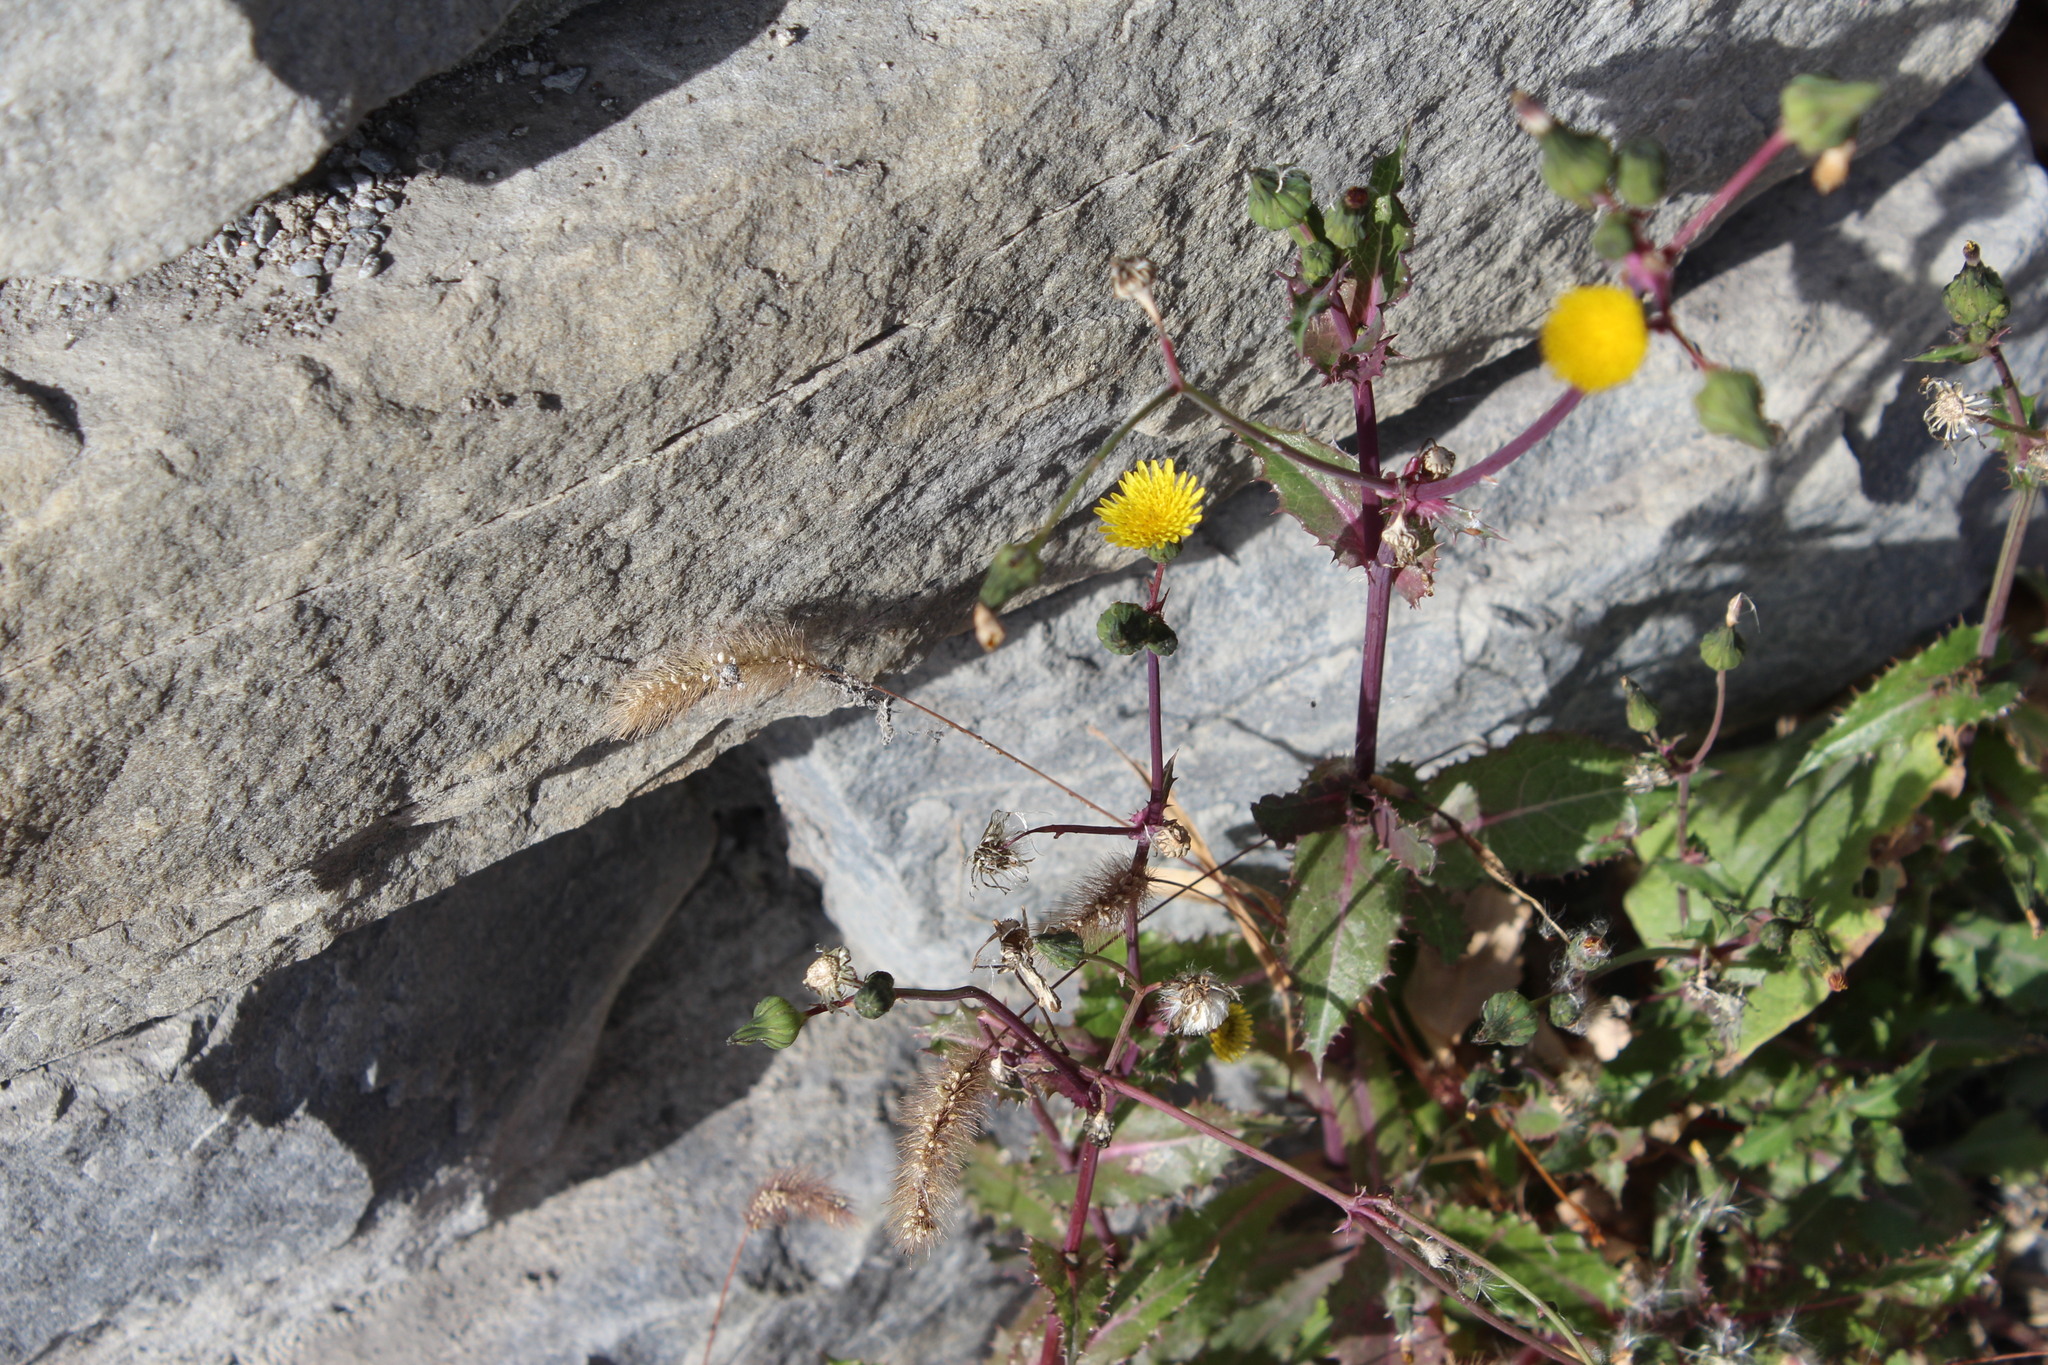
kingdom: Plantae
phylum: Tracheophyta
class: Magnoliopsida
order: Asterales
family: Asteraceae
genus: Sonchus
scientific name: Sonchus asper
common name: Prickly sow-thistle
